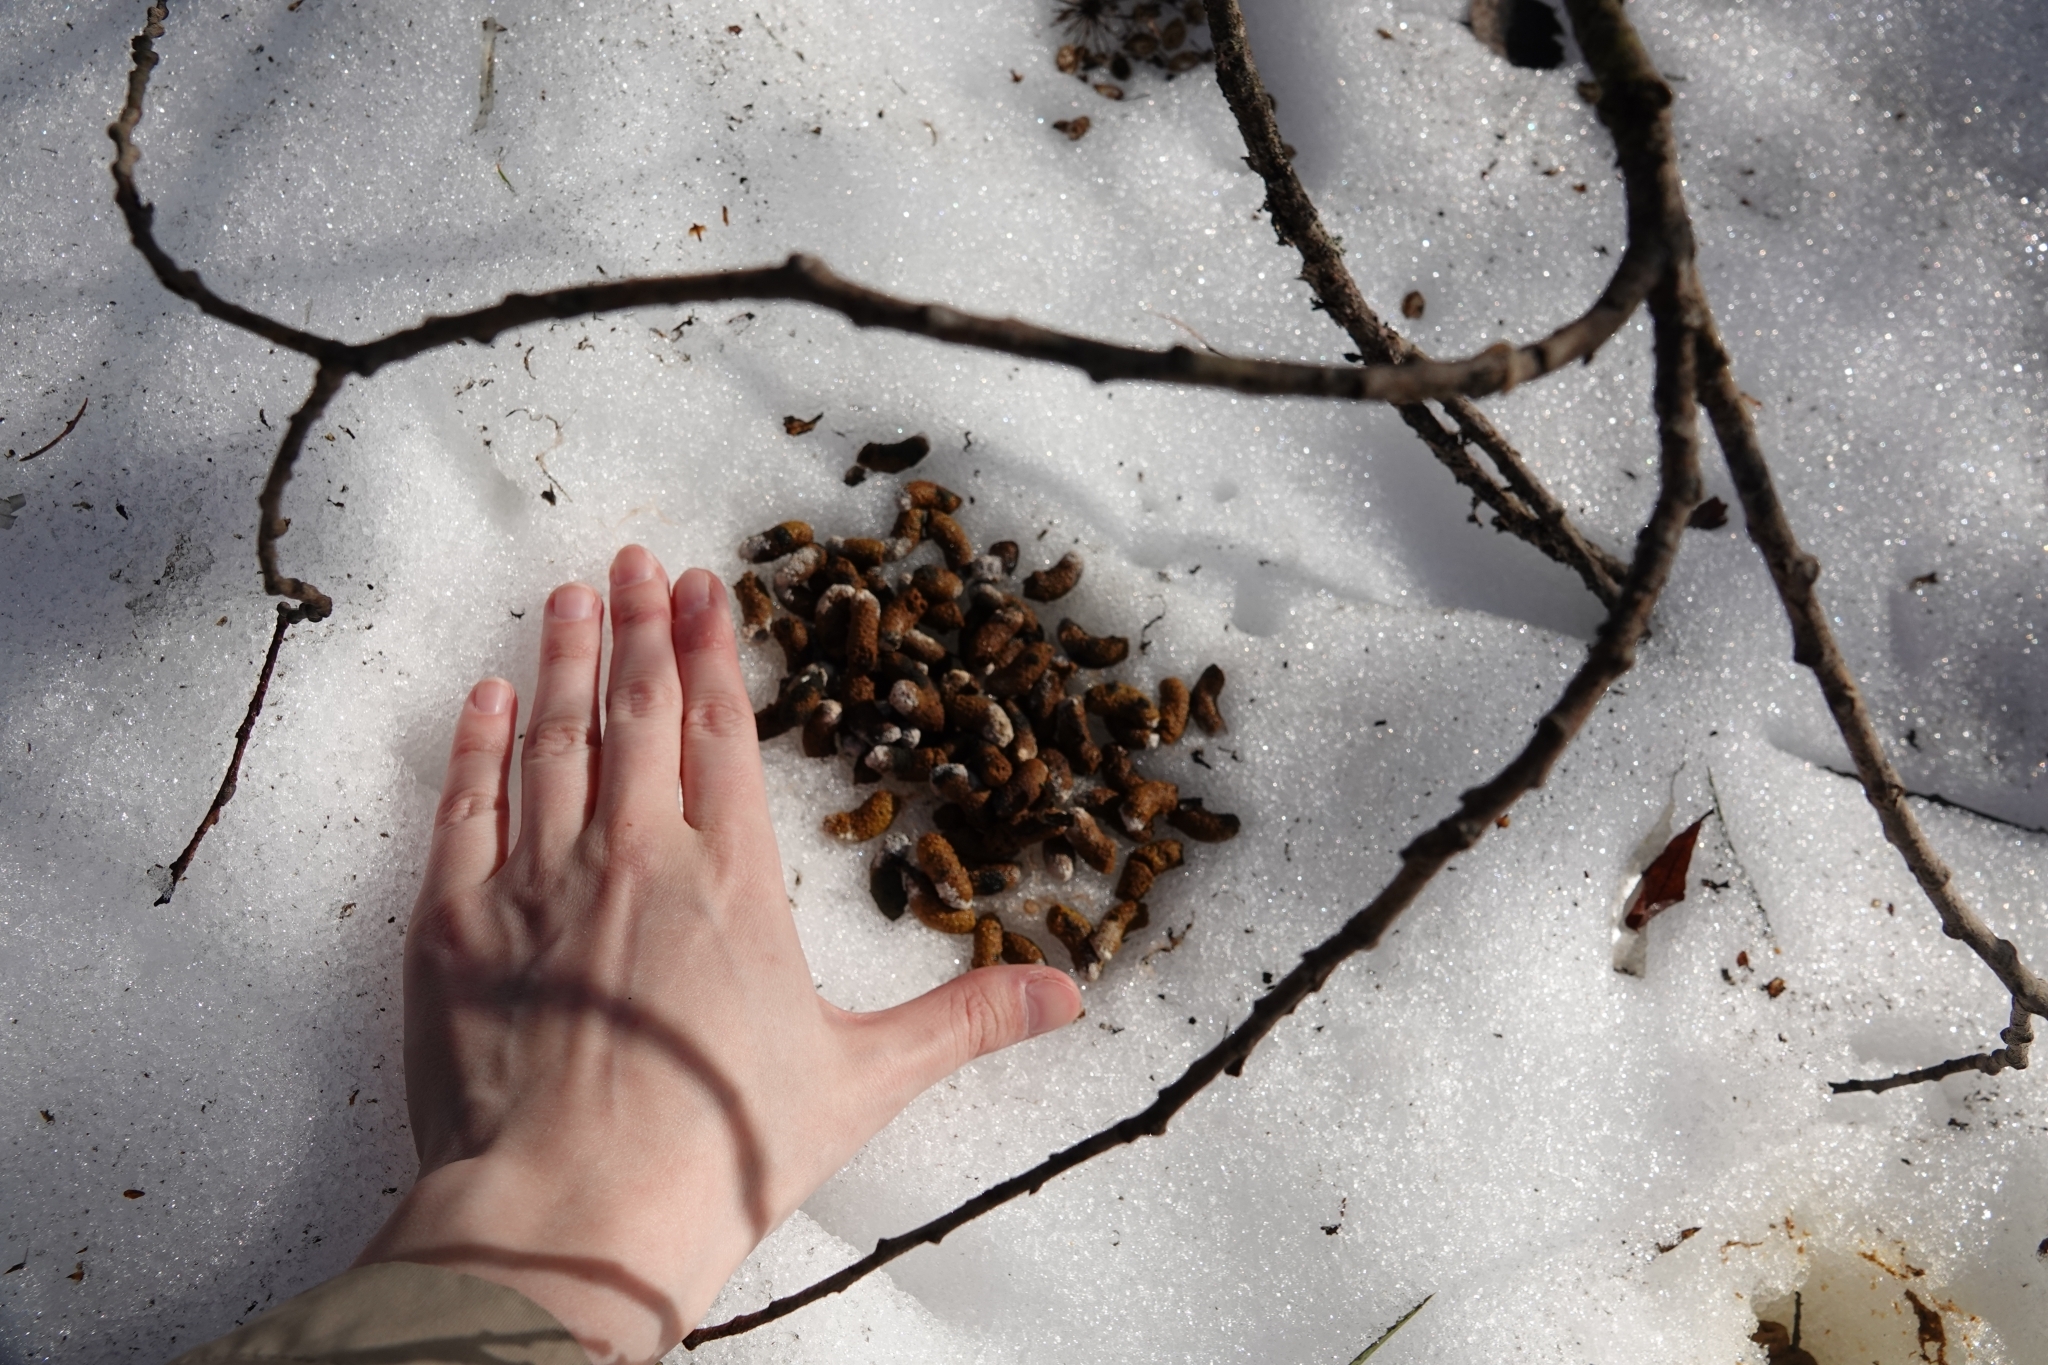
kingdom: Animalia
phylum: Chordata
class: Aves
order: Galliformes
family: Phasianidae
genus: Tetrastes
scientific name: Tetrastes bonasia
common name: Hazel grouse
